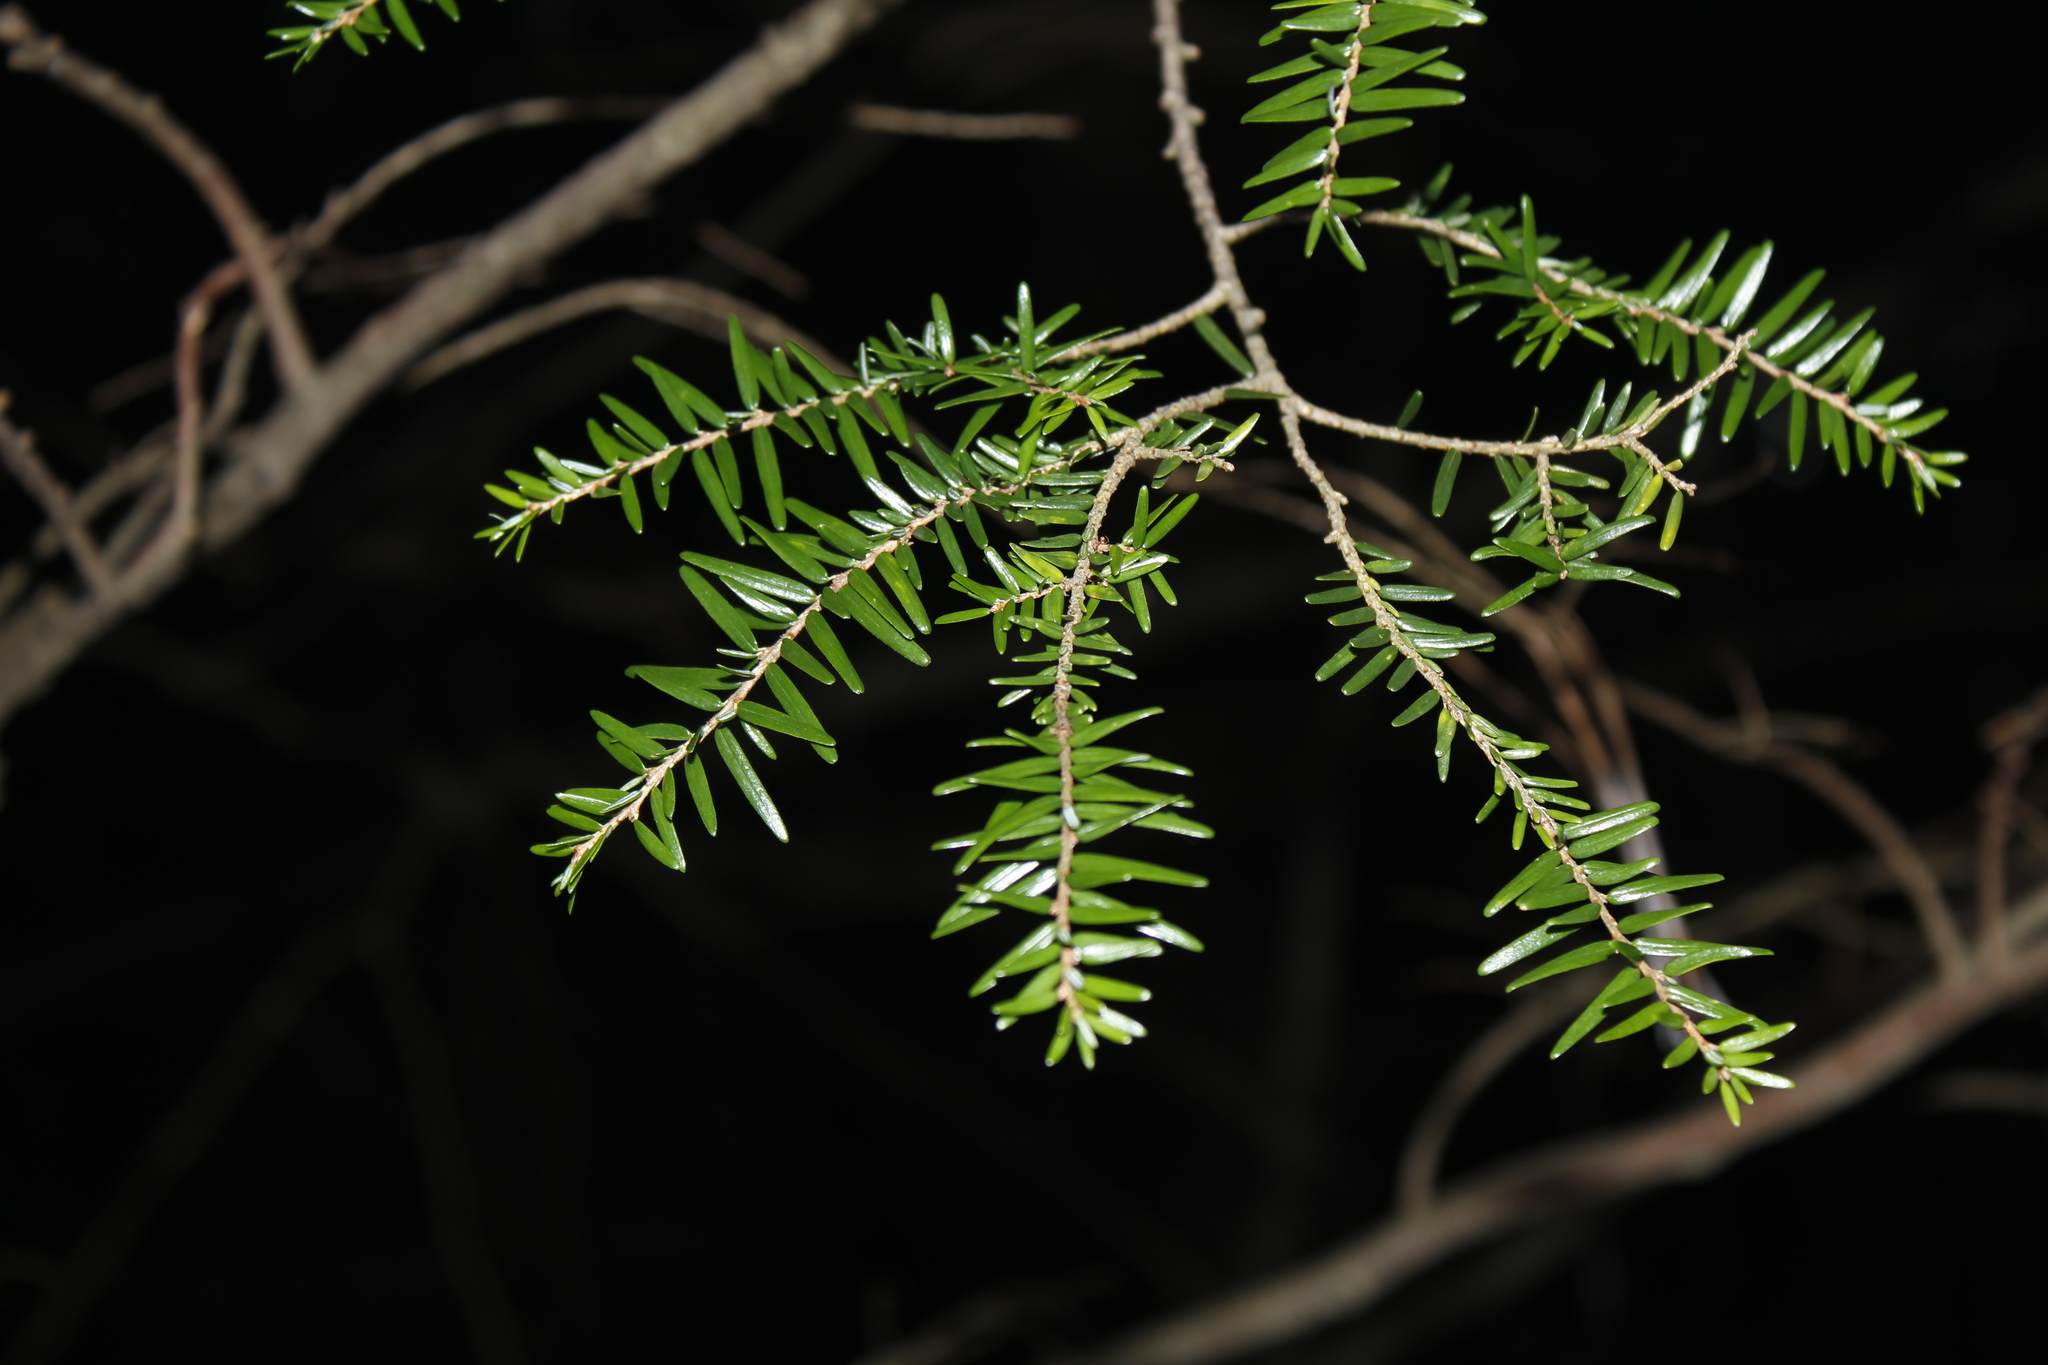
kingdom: Plantae
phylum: Tracheophyta
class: Pinopsida
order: Pinales
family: Pinaceae
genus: Tsuga
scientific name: Tsuga canadensis
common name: Eastern hemlock
